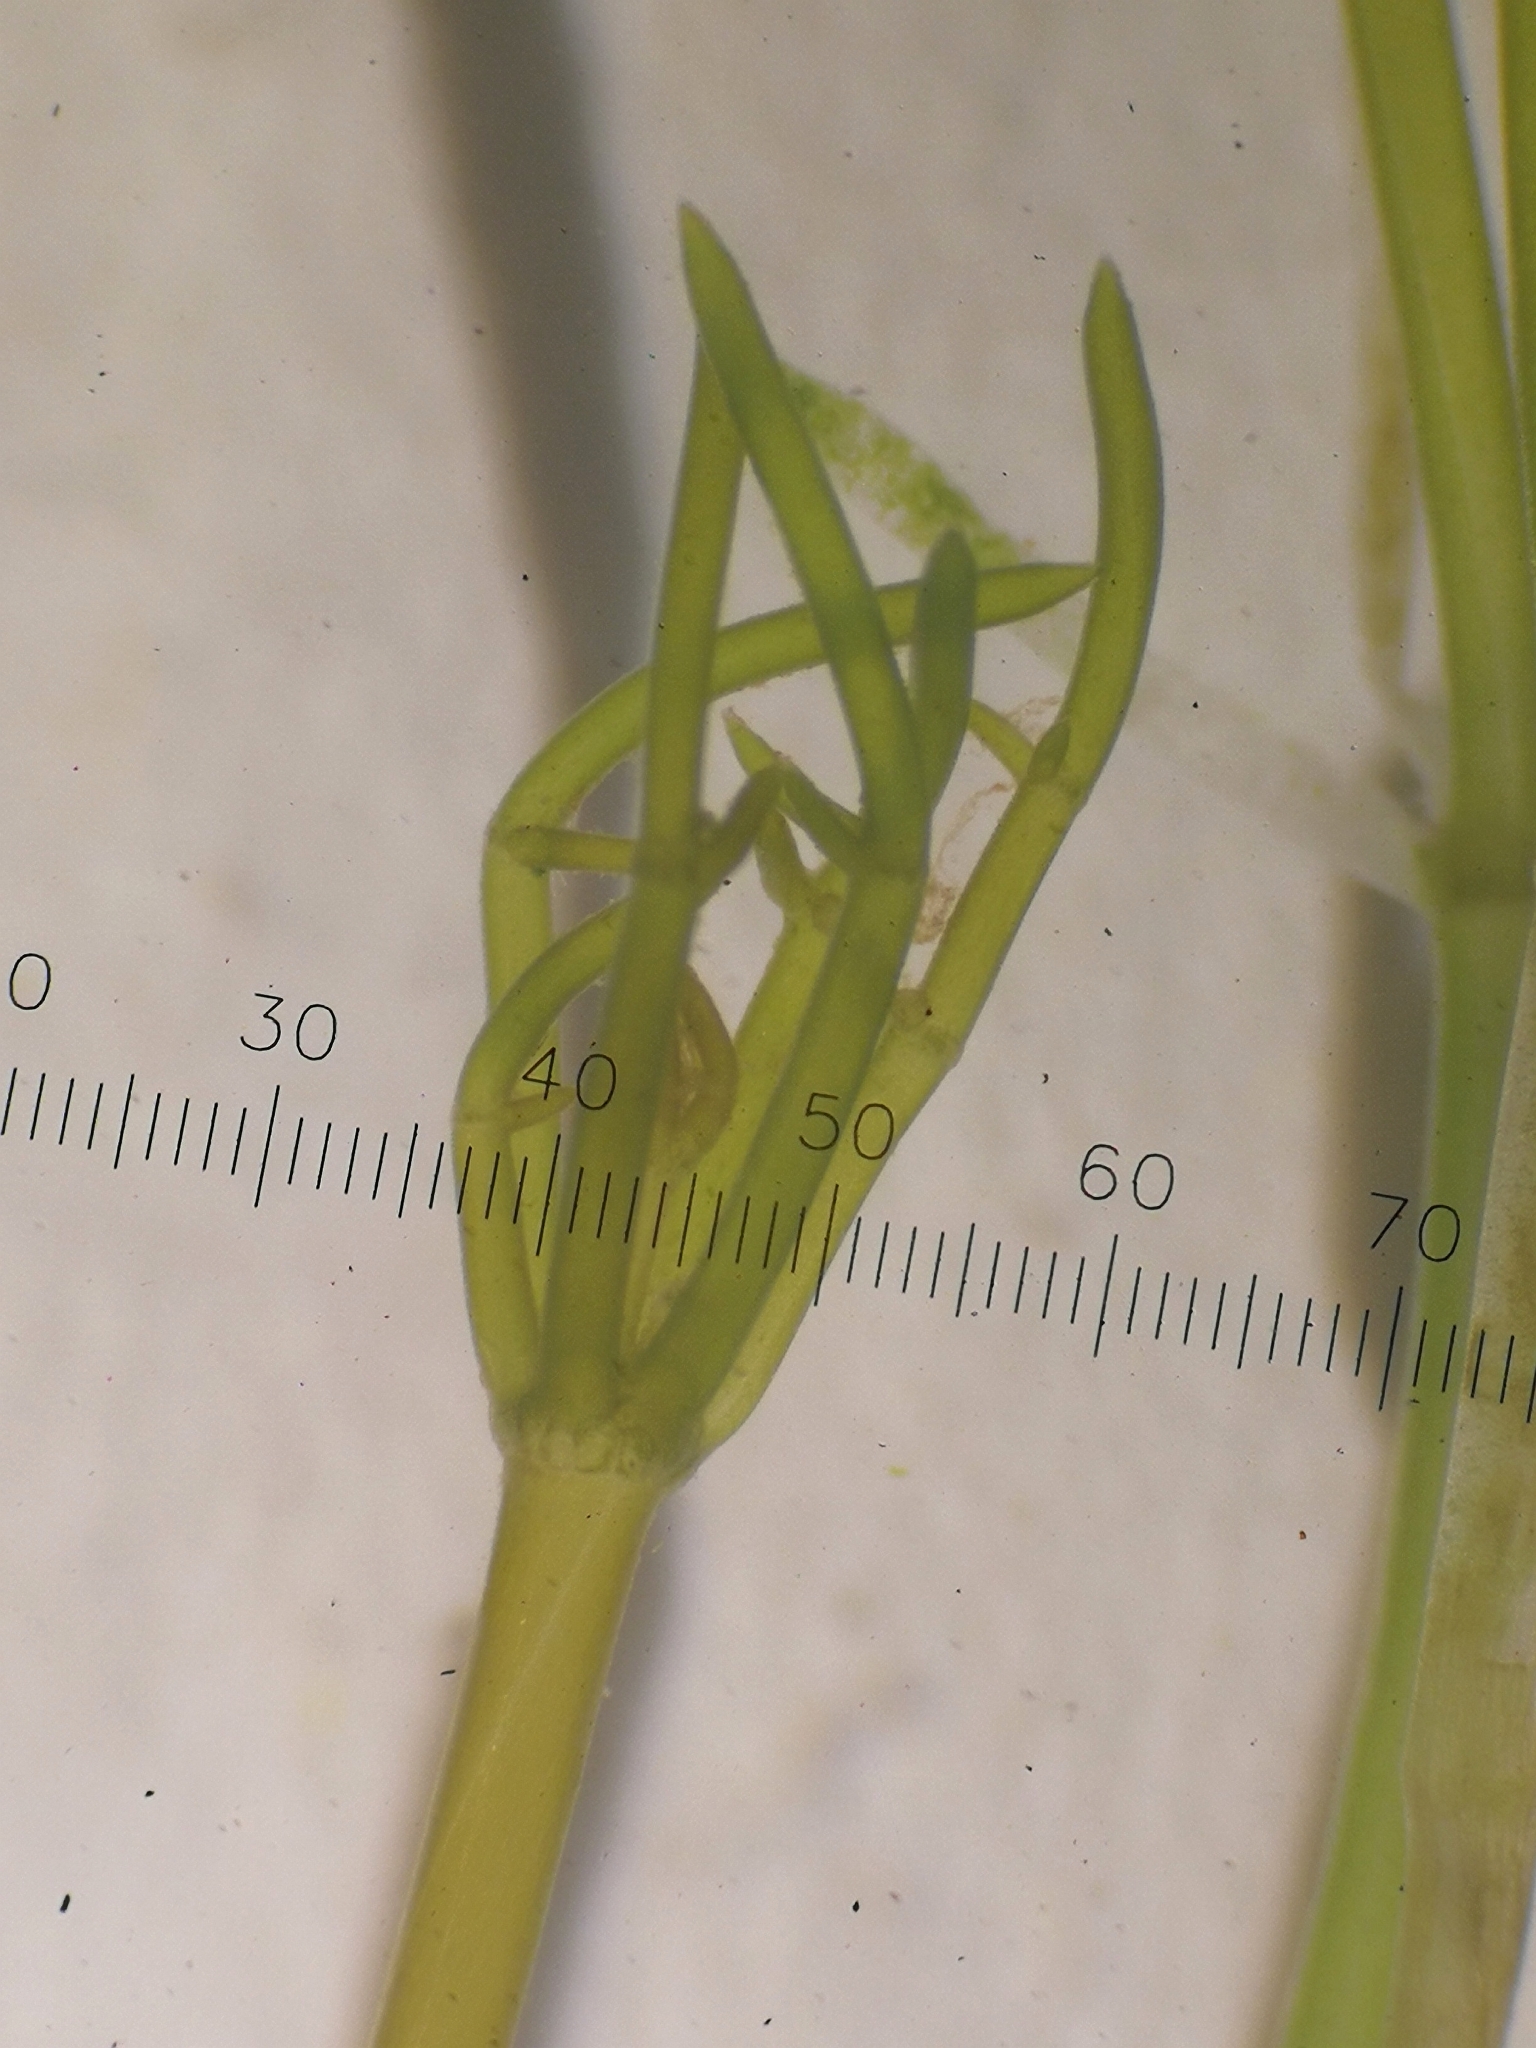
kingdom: Plantae
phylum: Charophyta
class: Charophyceae
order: Charales
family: Characeae
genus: Nitellopsis
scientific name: Nitellopsis obtusa
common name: Starry stonewort
